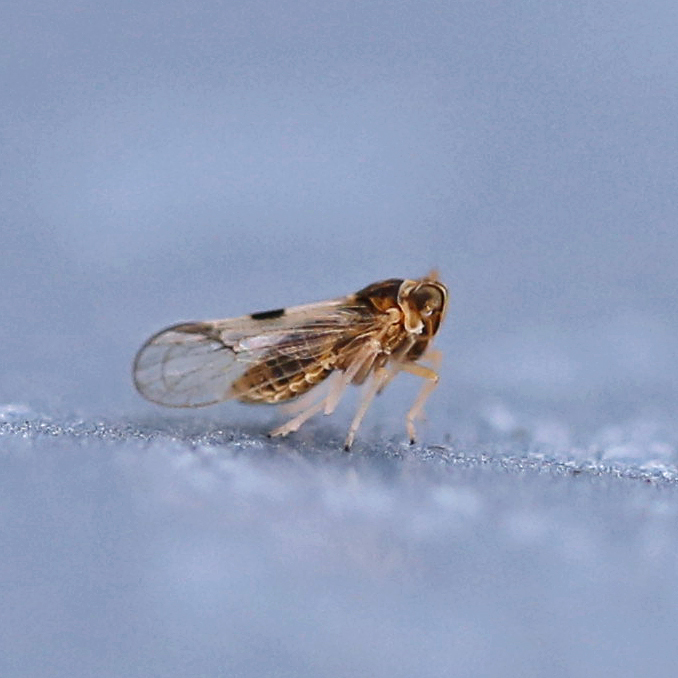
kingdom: Animalia
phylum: Arthropoda
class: Insecta
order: Hemiptera
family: Delphacidae
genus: Chionomus
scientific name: Chionomus
